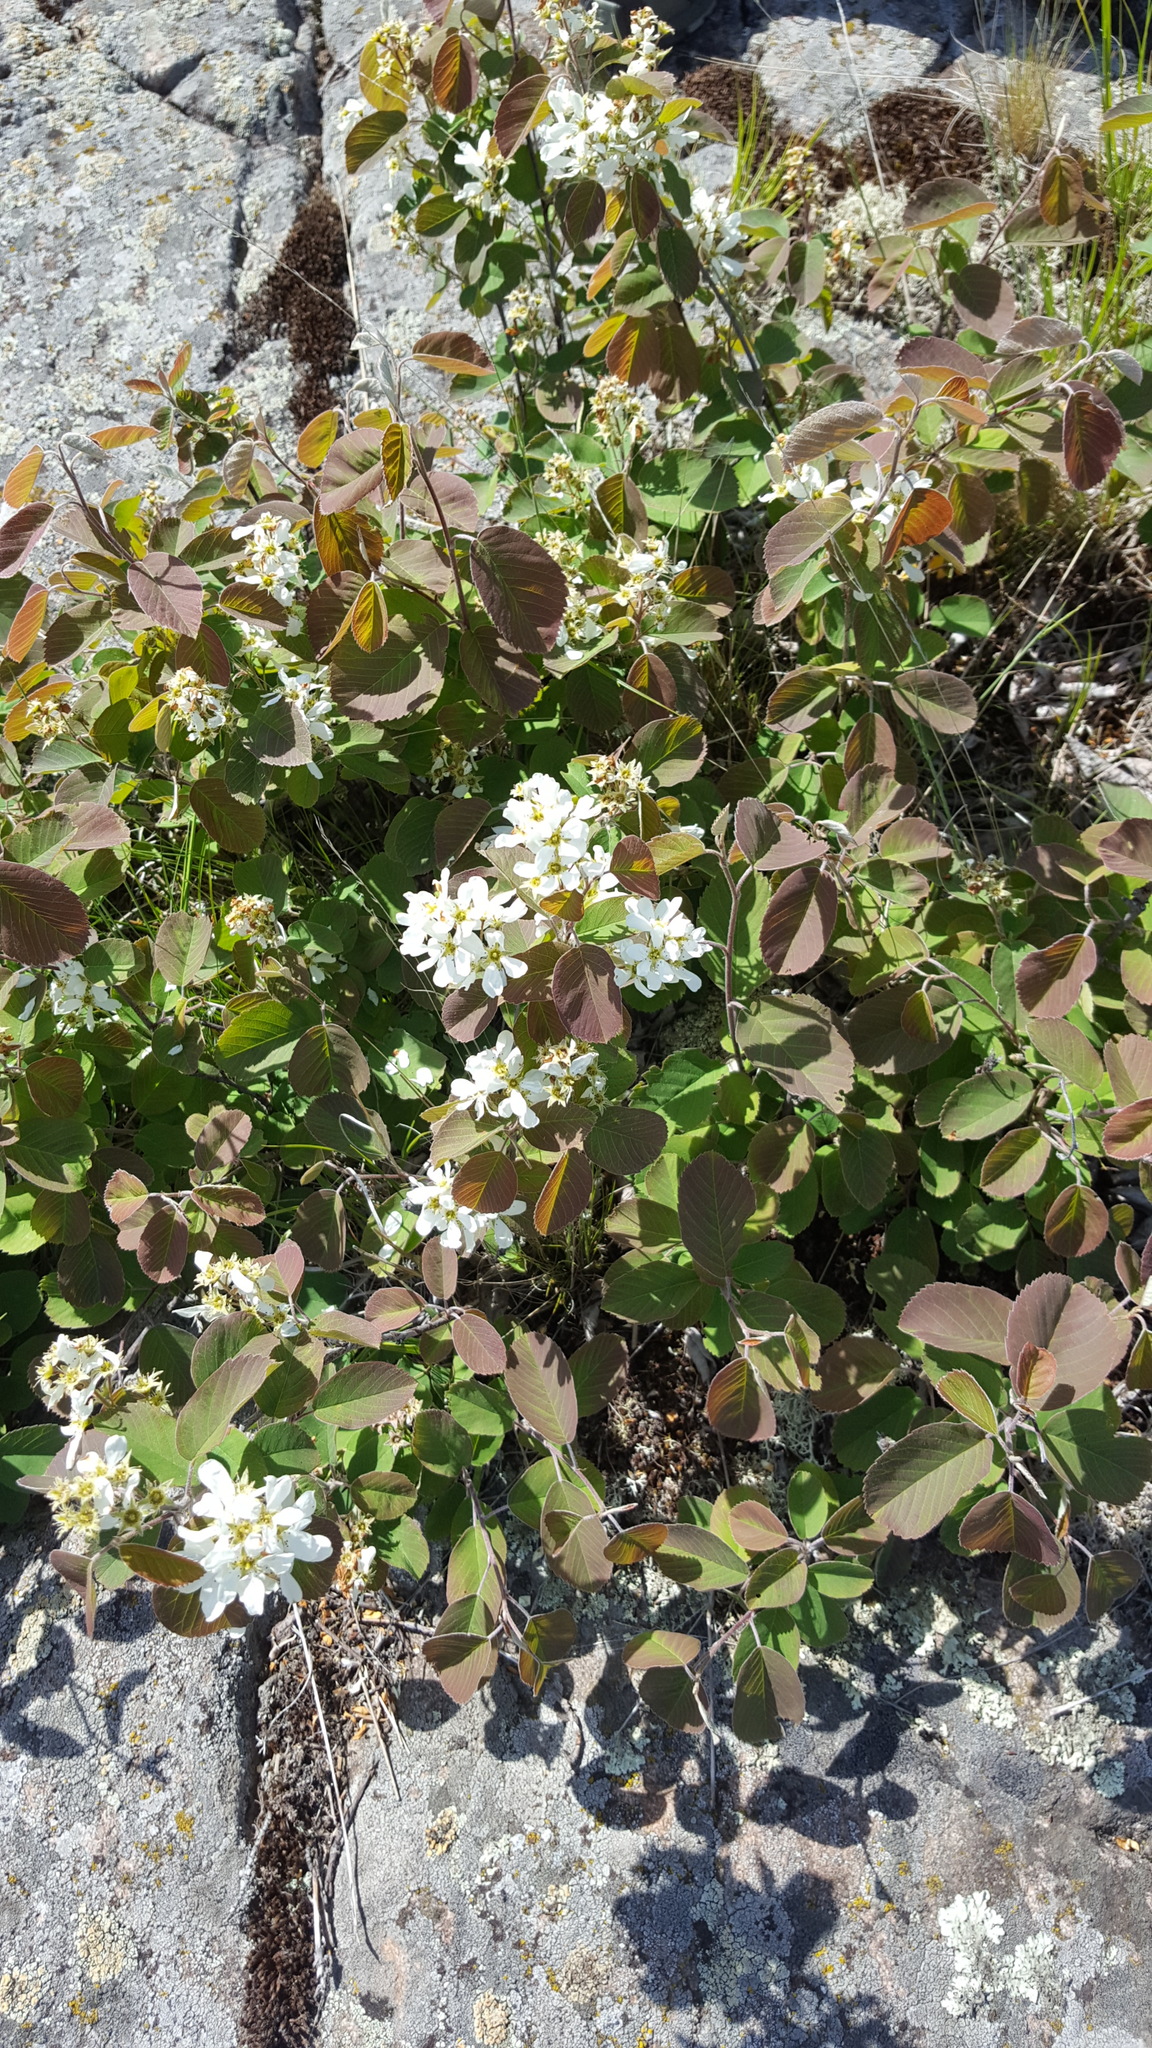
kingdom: Plantae
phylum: Tracheophyta
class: Magnoliopsida
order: Rosales
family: Rosaceae
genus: Amelanchier
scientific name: Amelanchier laevis
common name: Allegheny serviceberry
